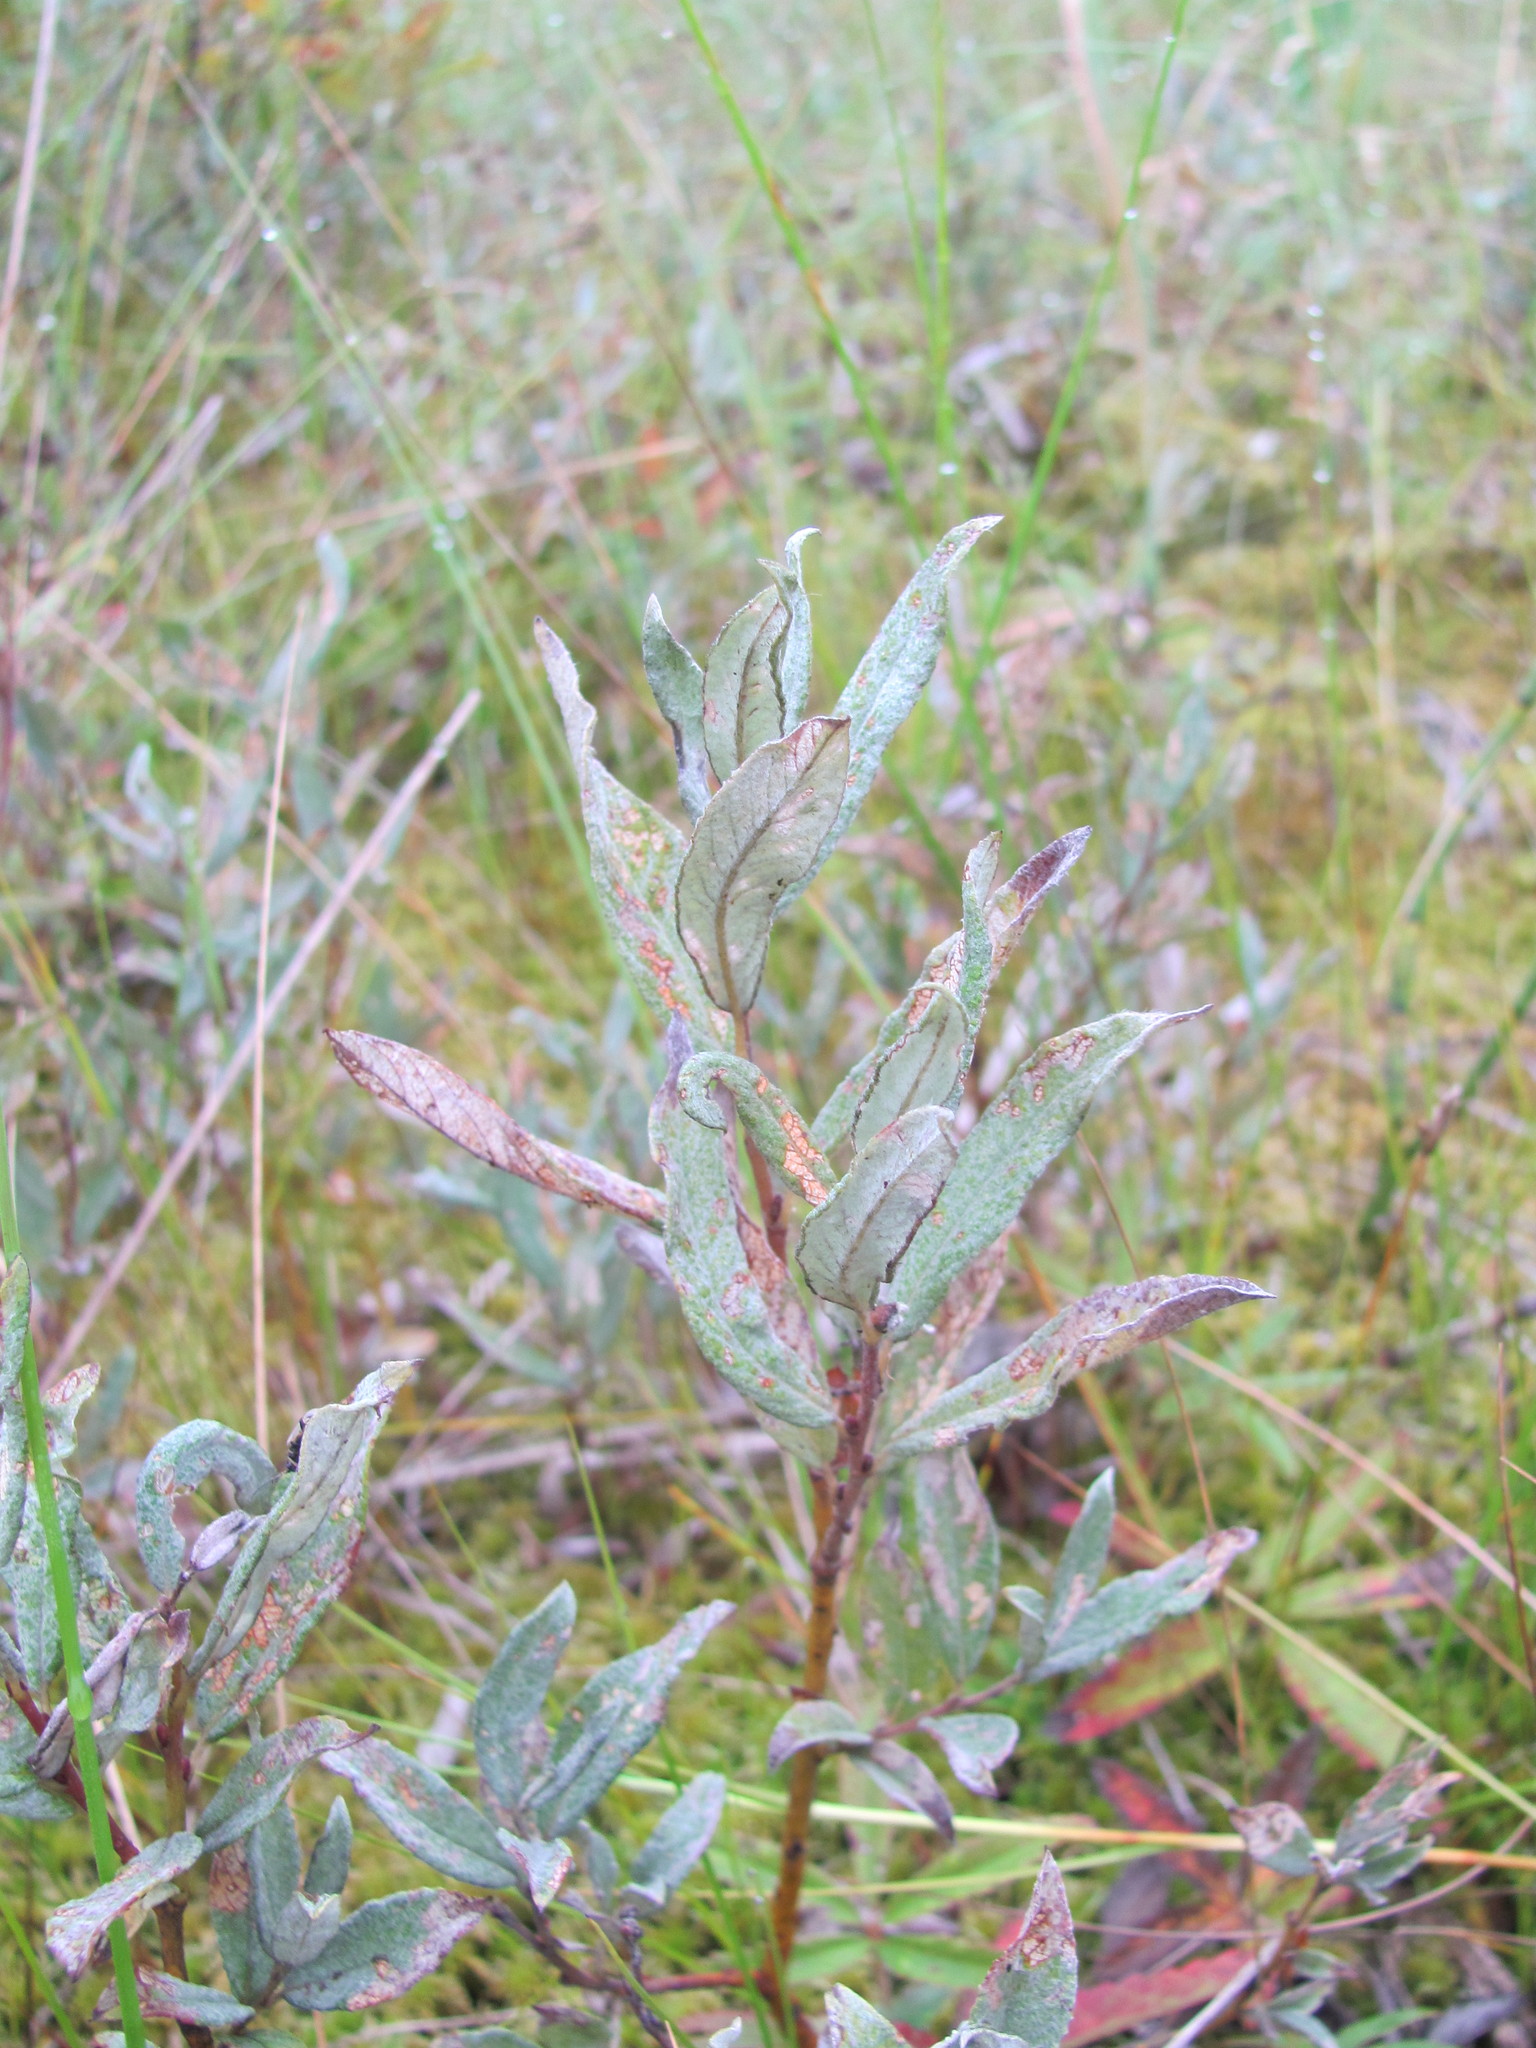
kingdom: Plantae
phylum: Tracheophyta
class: Magnoliopsida
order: Malpighiales
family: Salicaceae
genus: Salix
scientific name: Salix lapponum
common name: Downy willow
